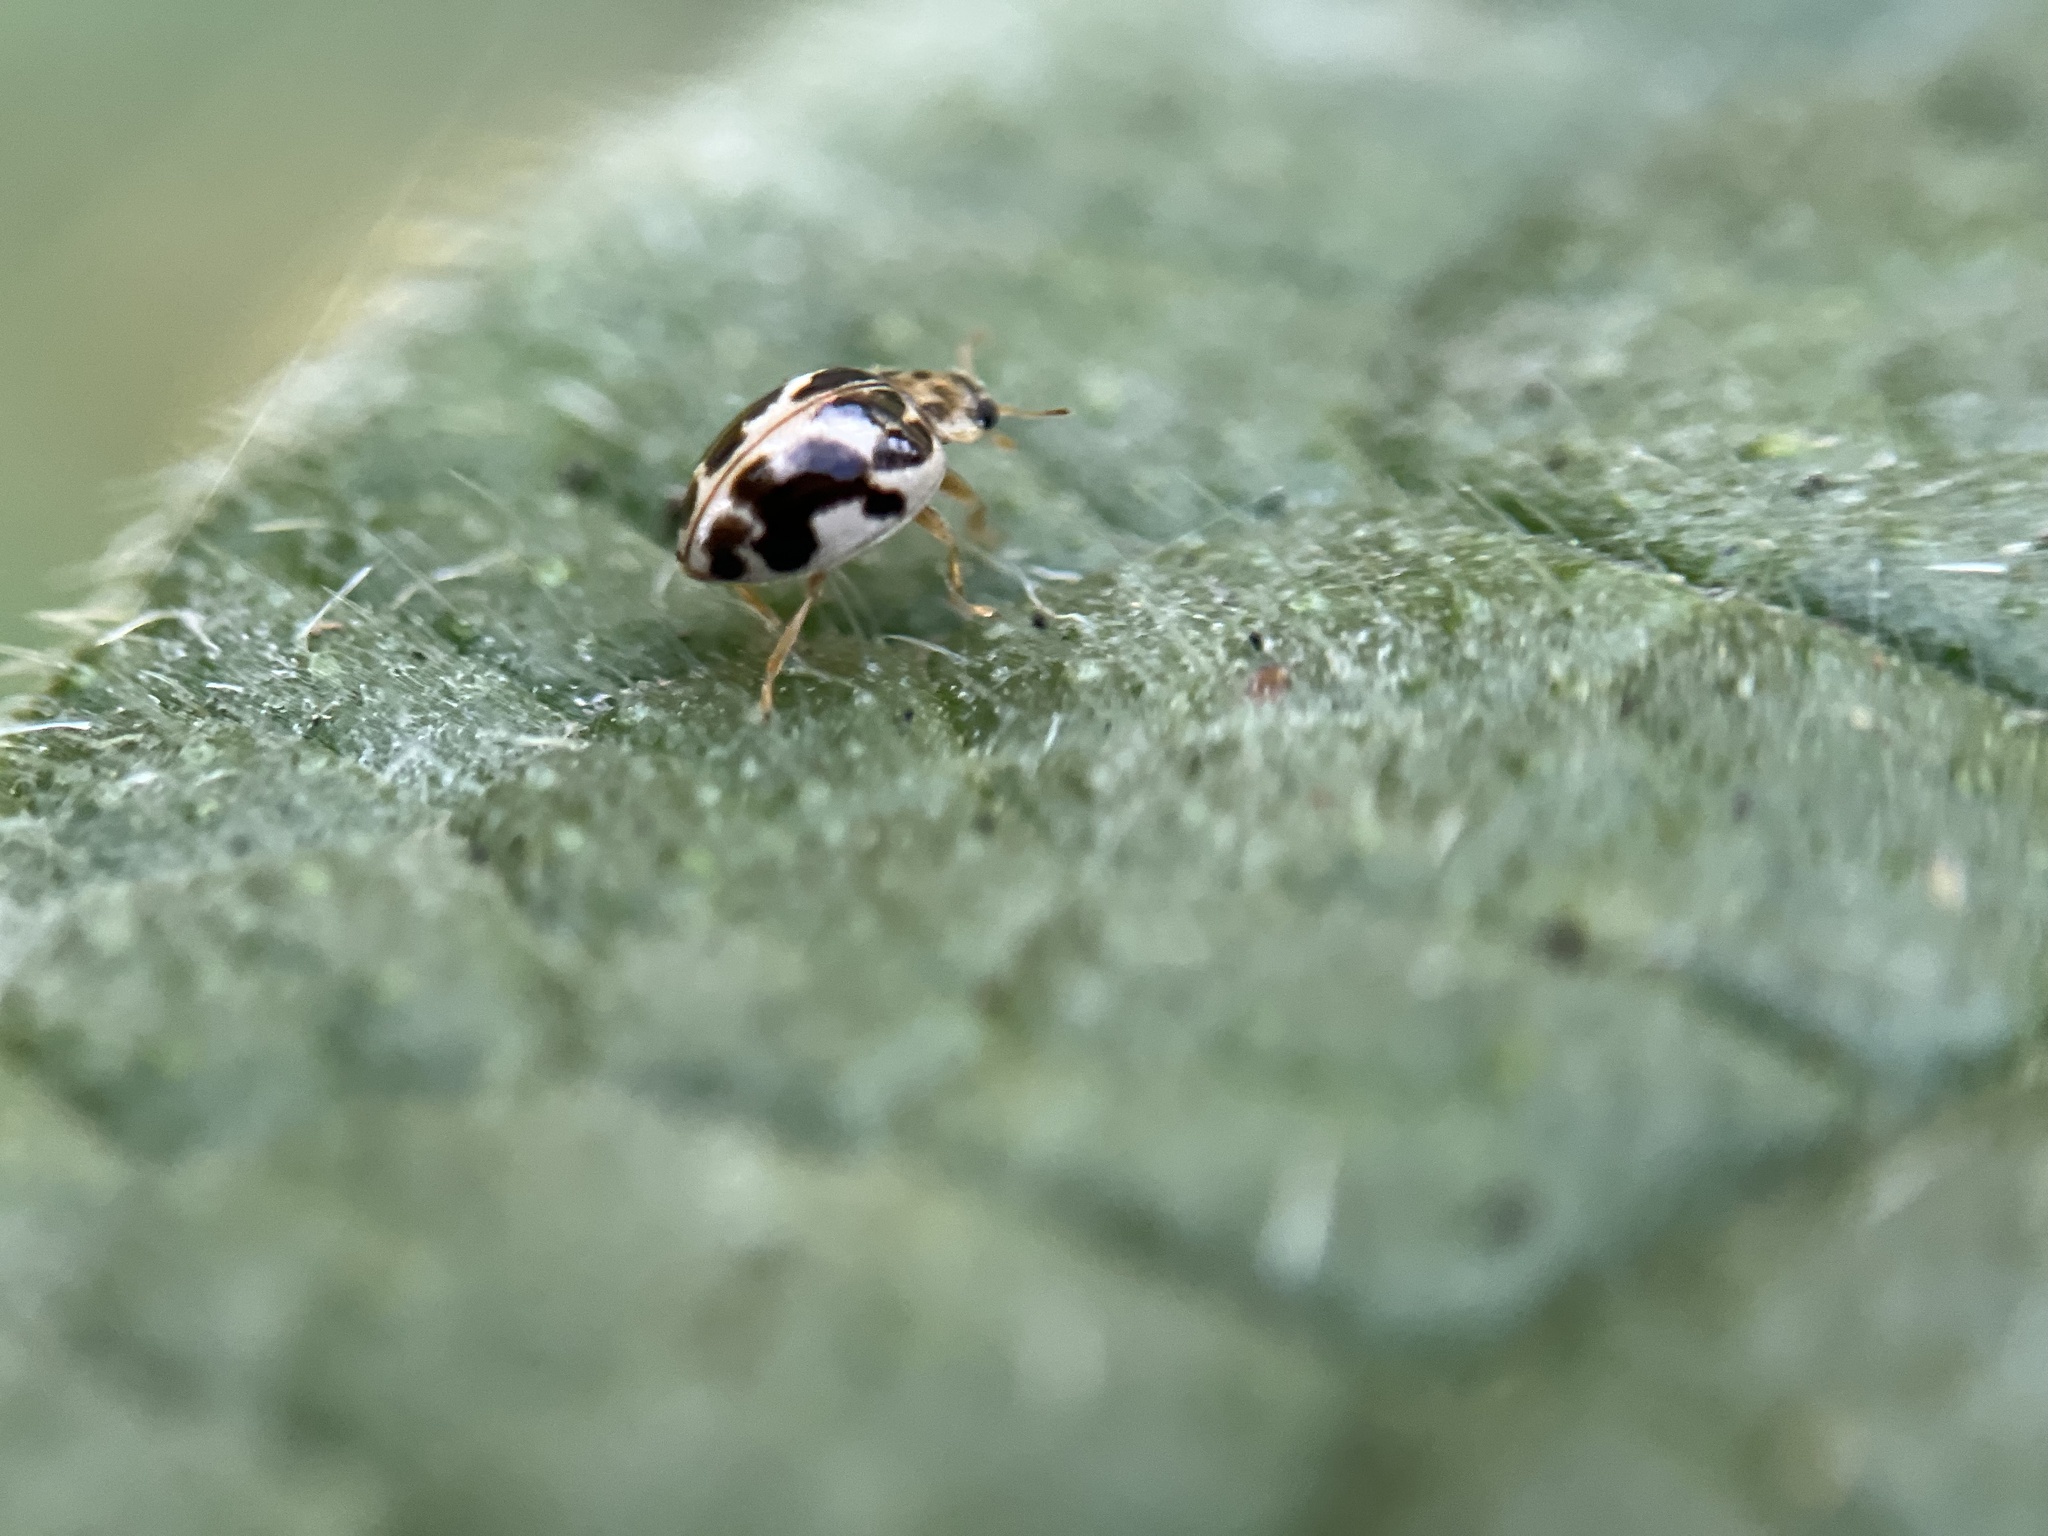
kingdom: Animalia
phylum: Arthropoda
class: Insecta
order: Coleoptera
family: Coccinellidae
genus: Psyllobora
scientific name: Psyllobora vigintimaculata
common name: Ladybird beetle
